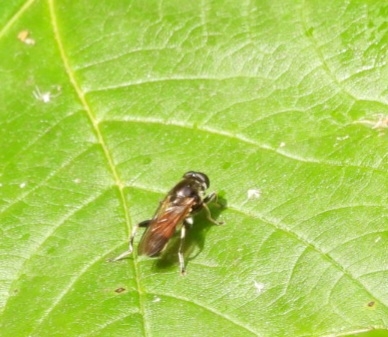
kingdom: Animalia
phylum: Arthropoda
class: Insecta
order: Diptera
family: Syrphidae
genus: Xylota
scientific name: Xylota segnis
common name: Brown-toed forest fly
